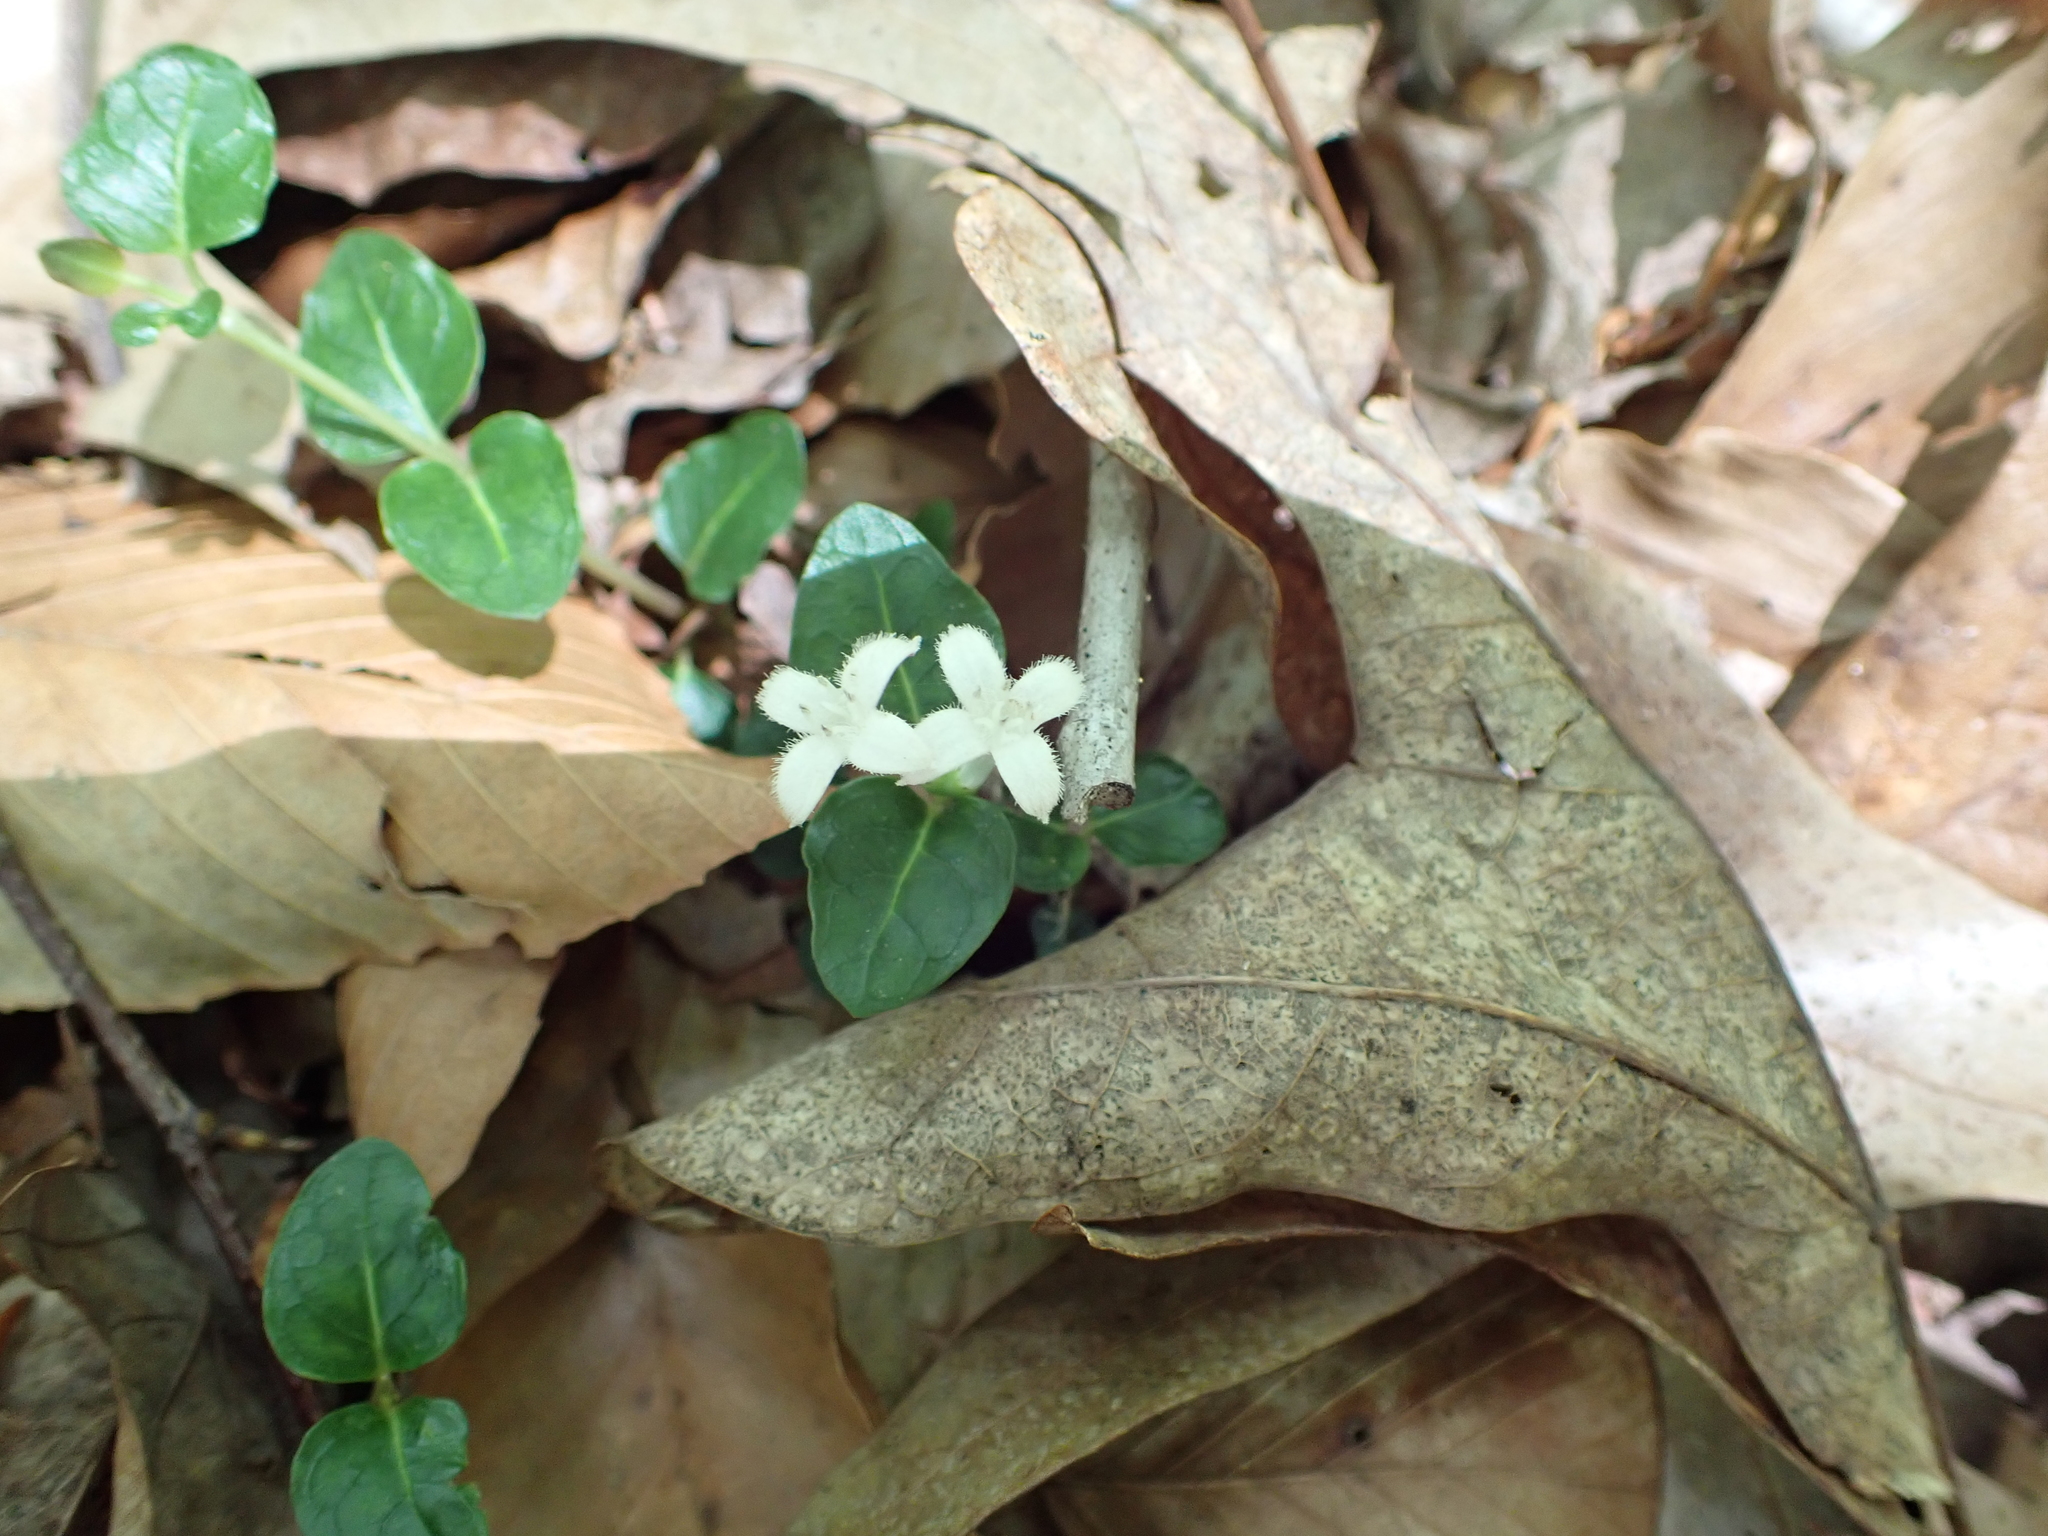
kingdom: Plantae
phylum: Tracheophyta
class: Magnoliopsida
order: Gentianales
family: Rubiaceae
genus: Mitchella
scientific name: Mitchella repens
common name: Partridge-berry
